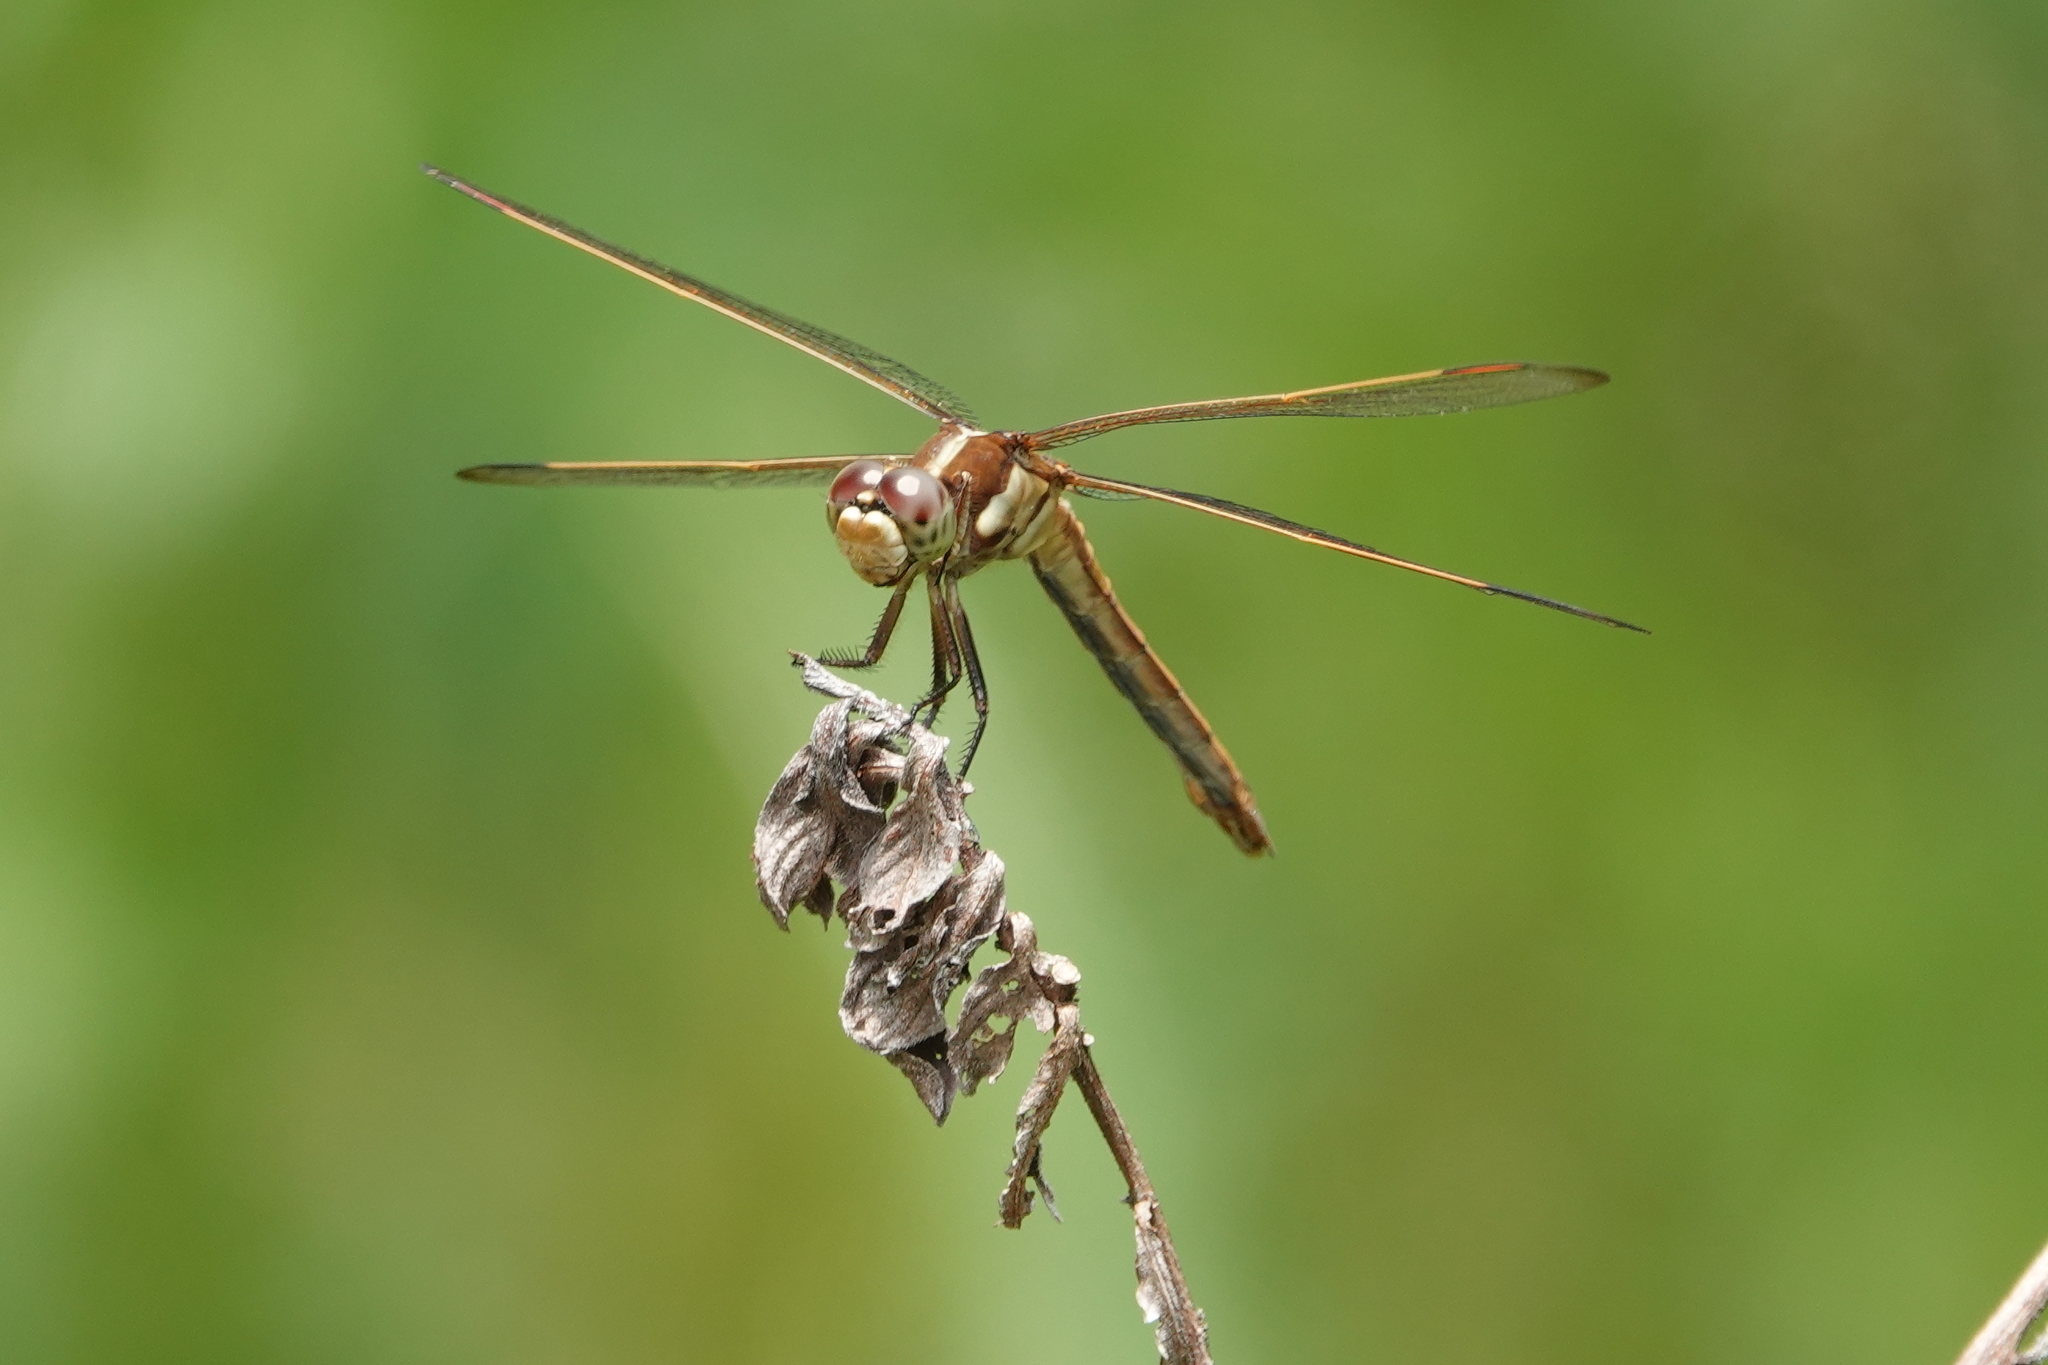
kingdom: Animalia
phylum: Arthropoda
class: Insecta
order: Odonata
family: Libellulidae
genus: Libellula
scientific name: Libellula auripennis
